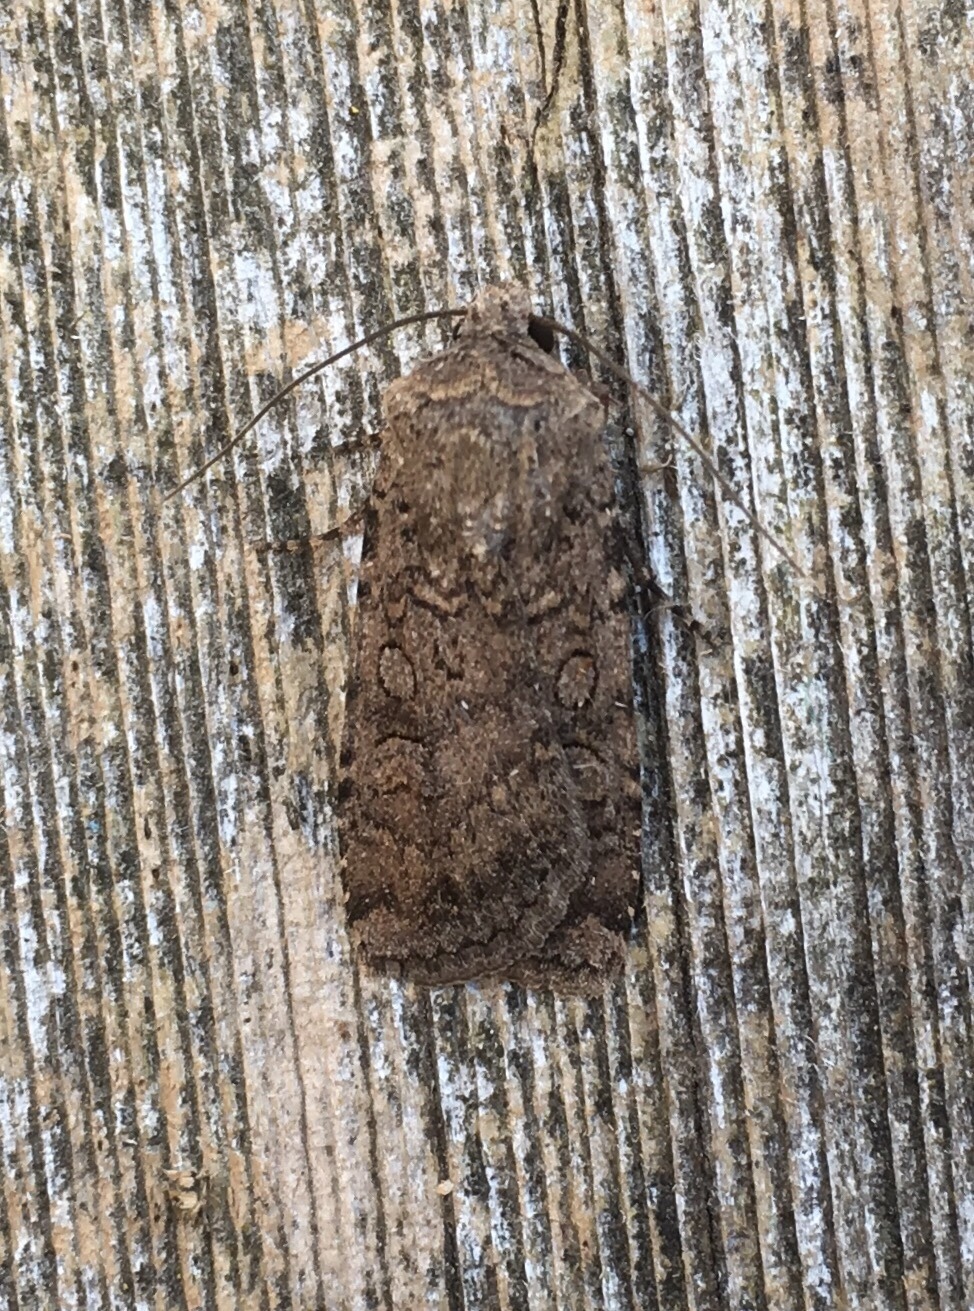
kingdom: Animalia
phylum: Arthropoda
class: Insecta
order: Lepidoptera
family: Noctuidae
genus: Euxoa
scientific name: Euxoa messoria
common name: Darksided cutworm
